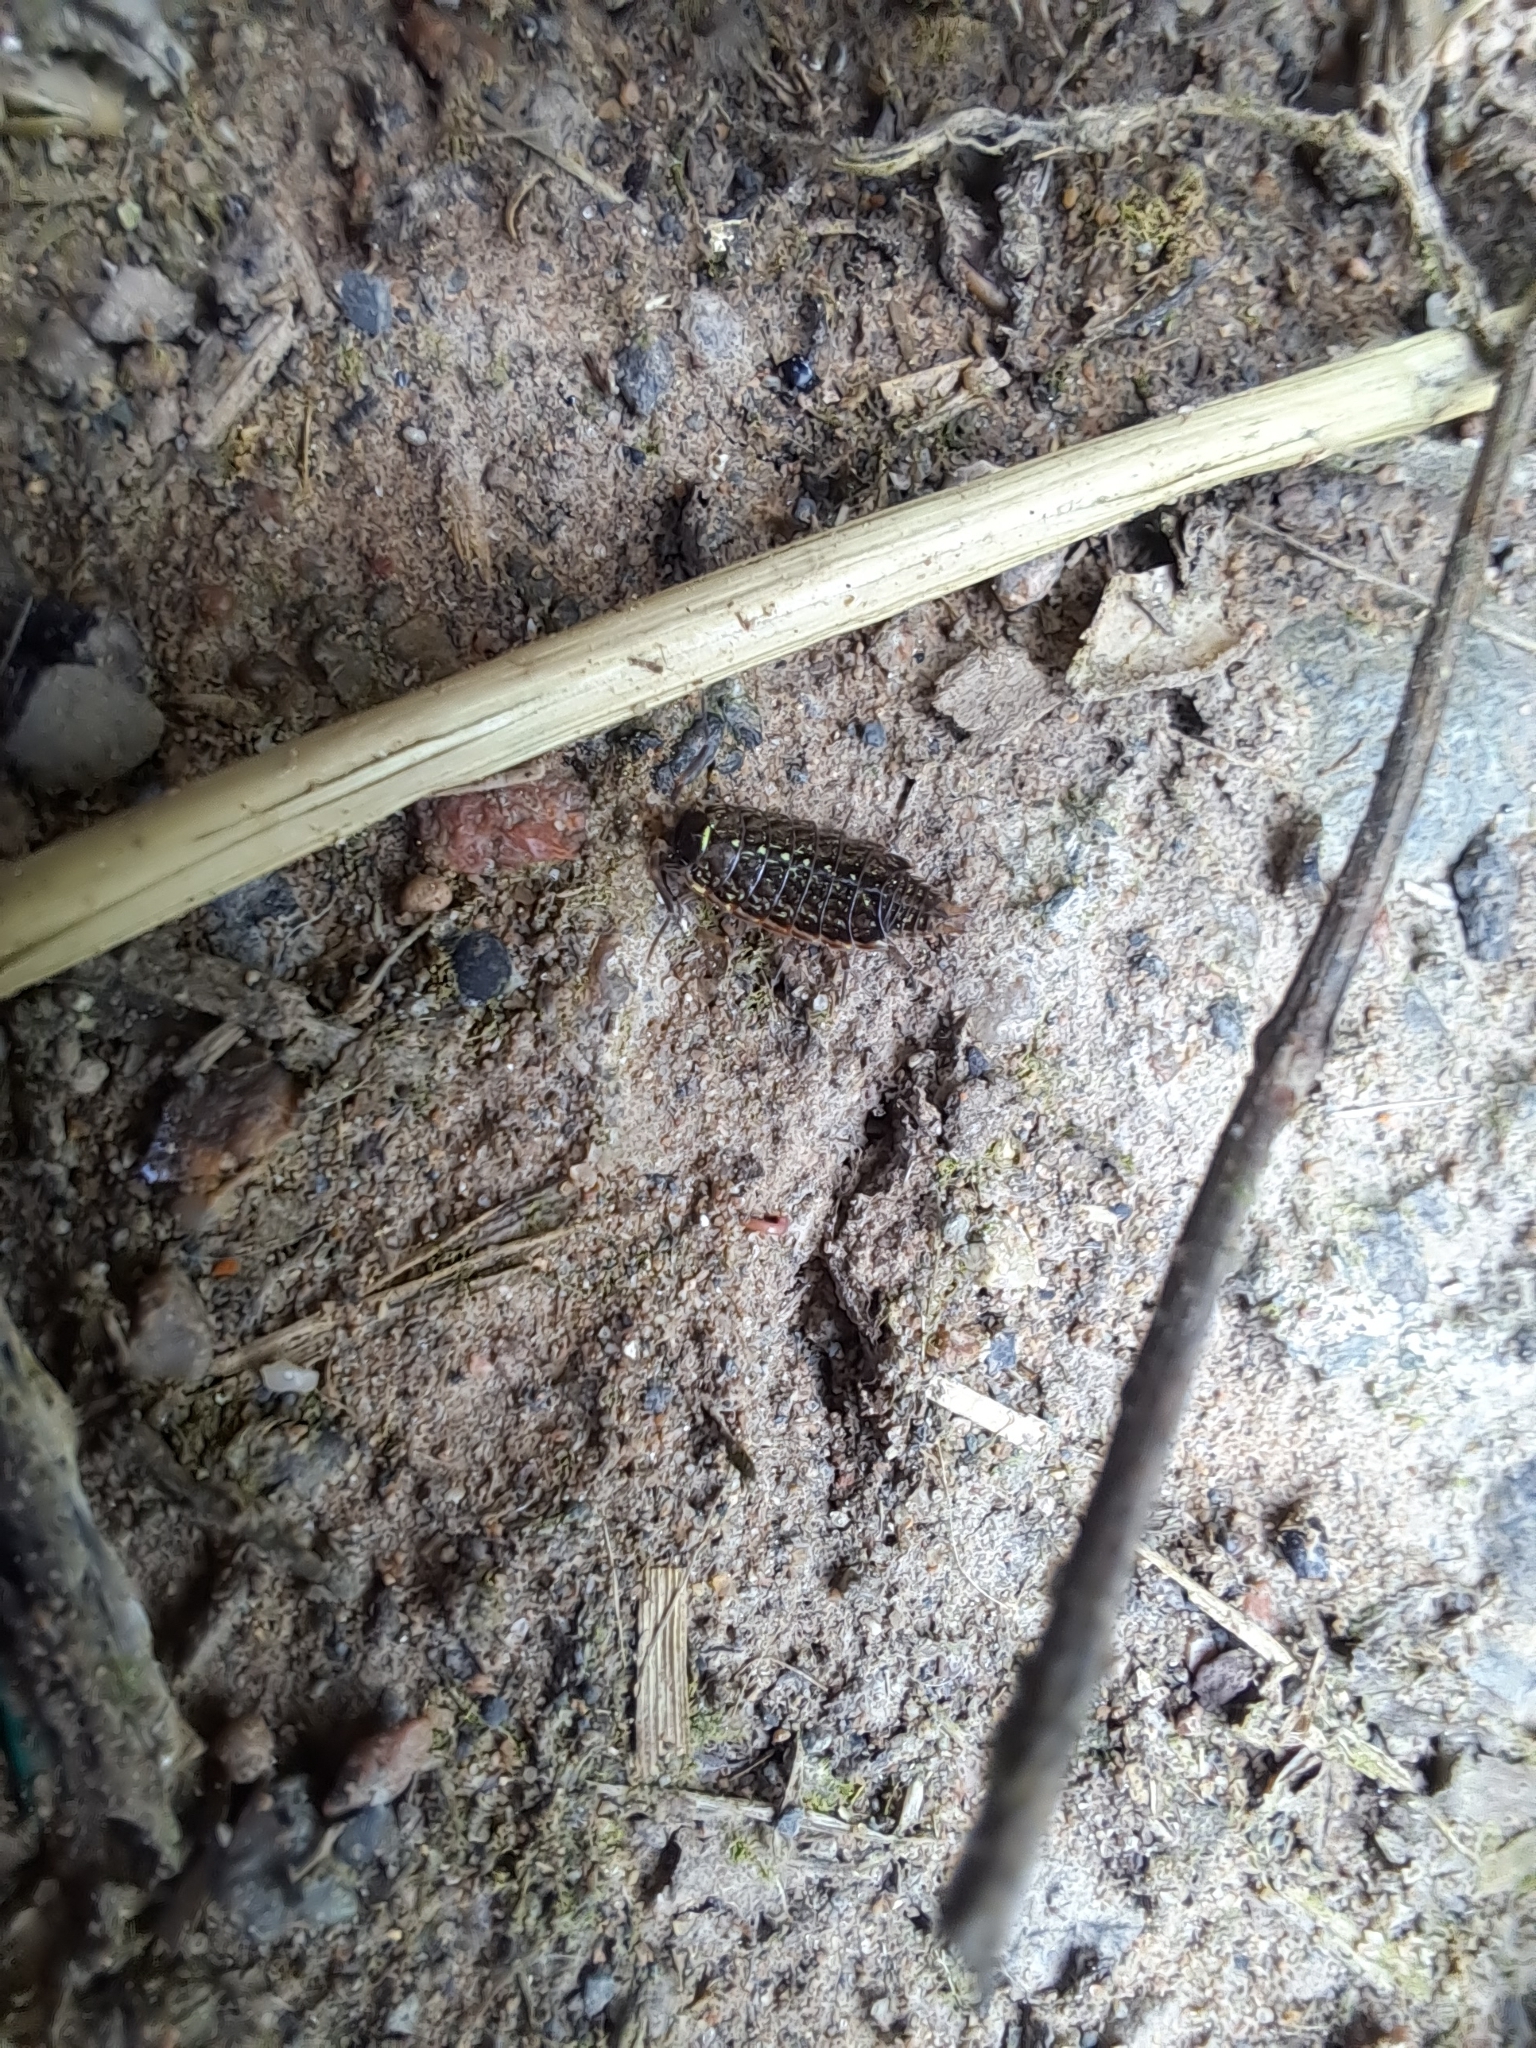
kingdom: Animalia
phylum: Arthropoda
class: Malacostraca
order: Isopoda
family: Philosciidae
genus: Philoscia
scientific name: Philoscia muscorum
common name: Common striped woodlouse
